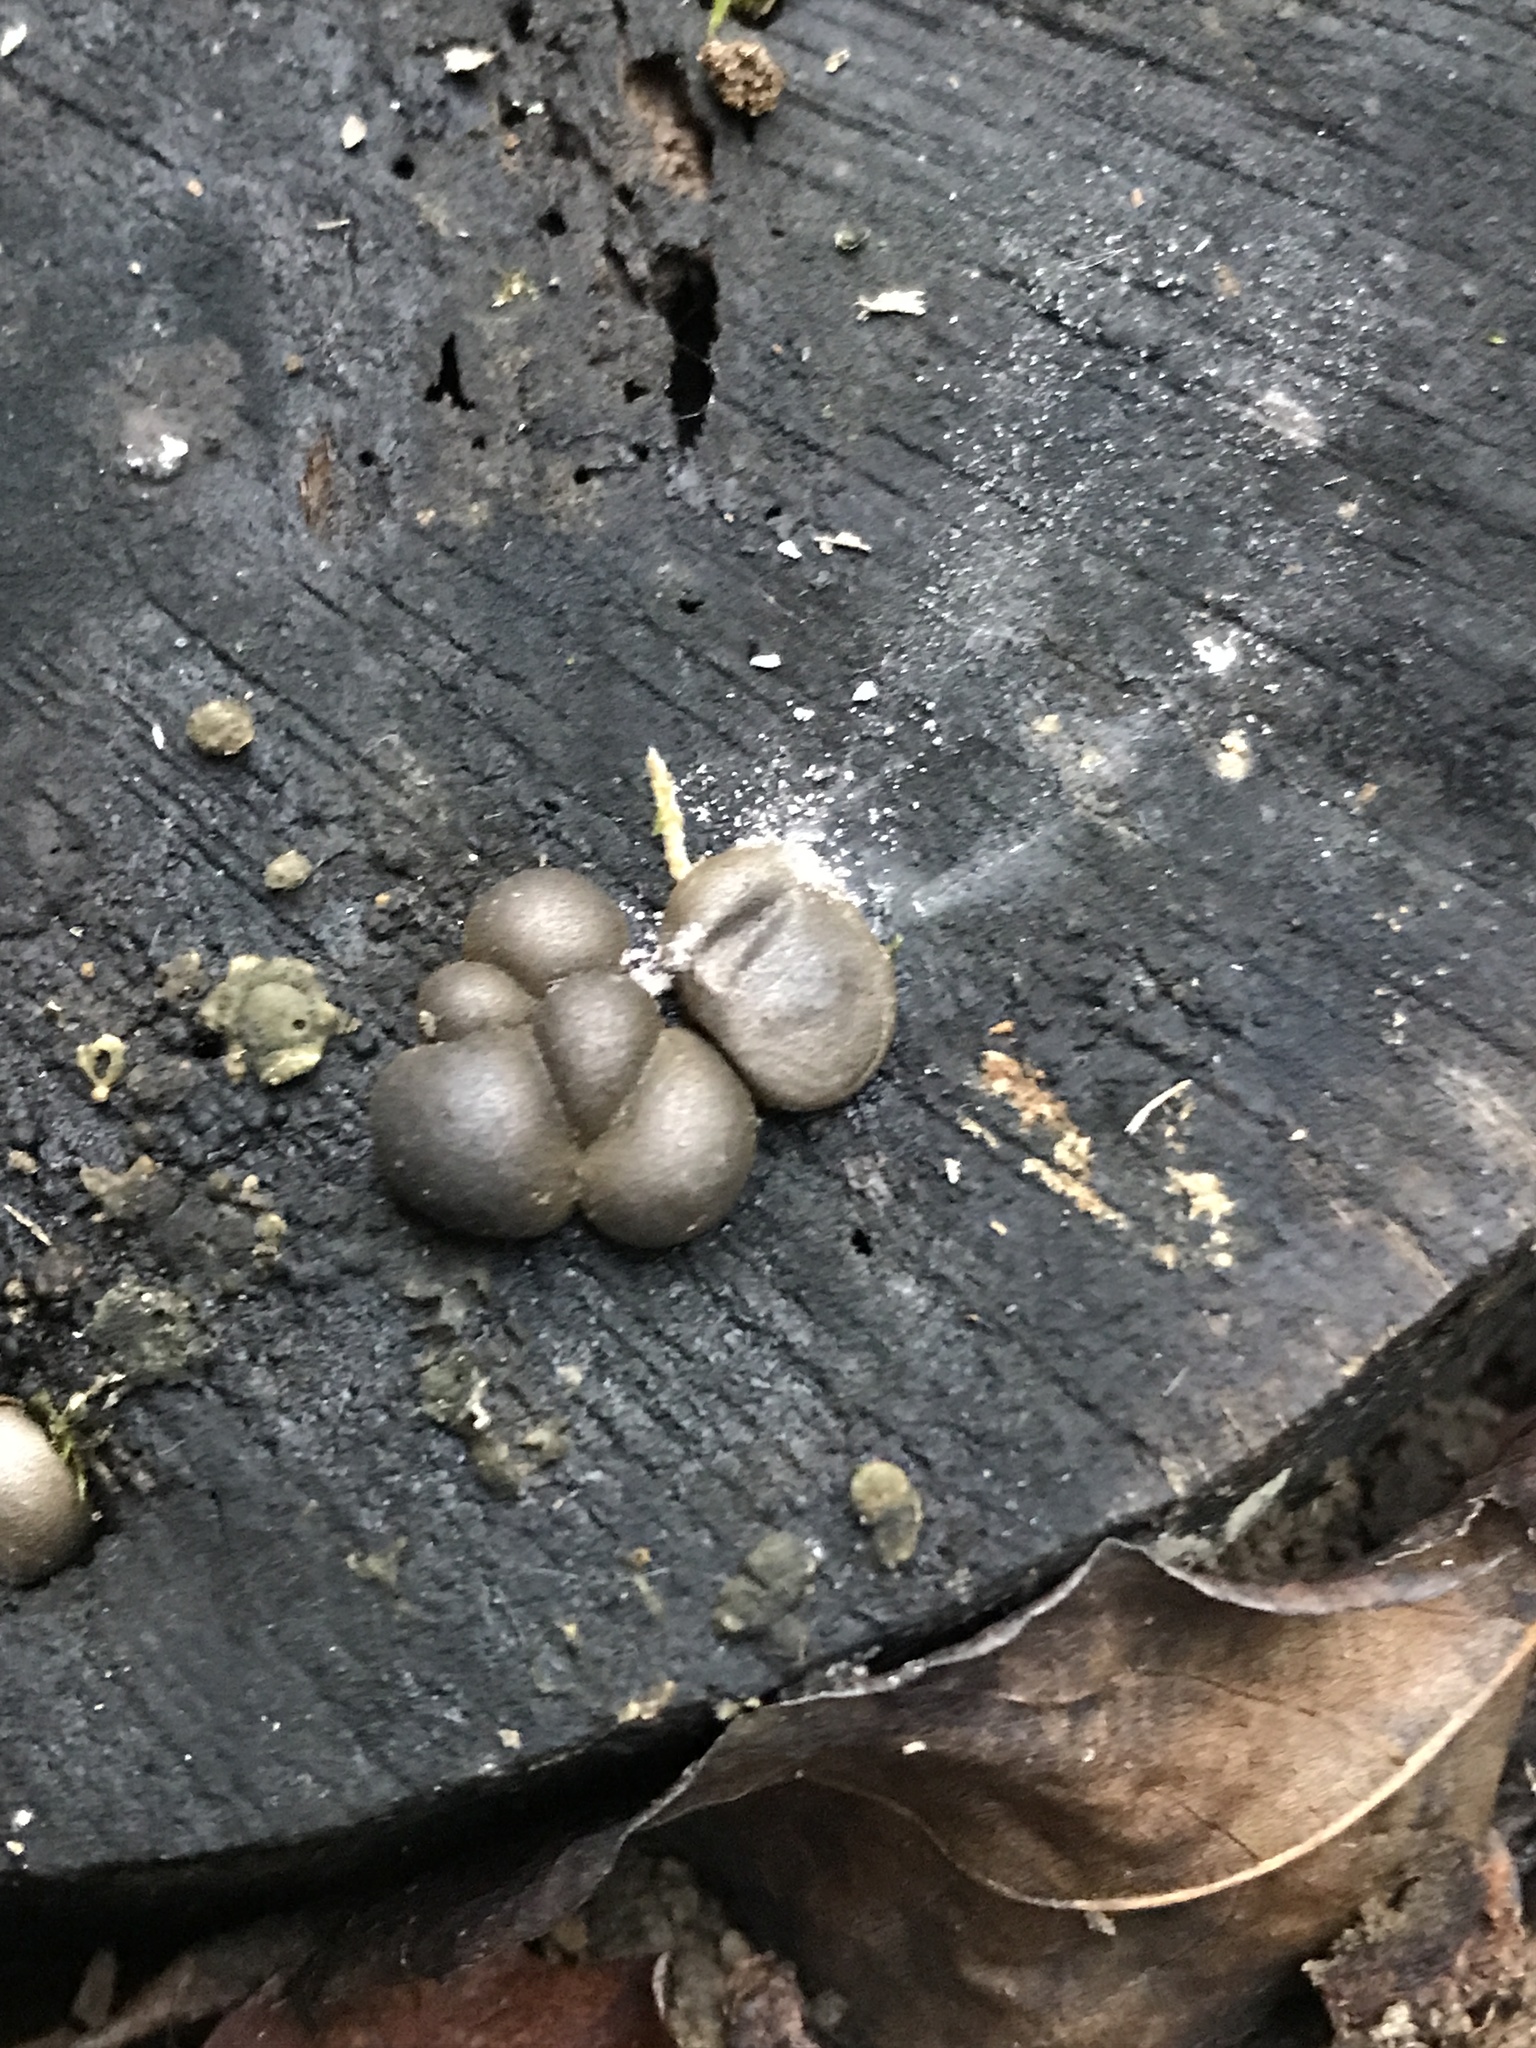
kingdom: Protozoa
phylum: Mycetozoa
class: Myxomycetes
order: Cribrariales
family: Tubiferaceae
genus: Lycogala
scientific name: Lycogala epidendrum
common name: Wolf's milk
